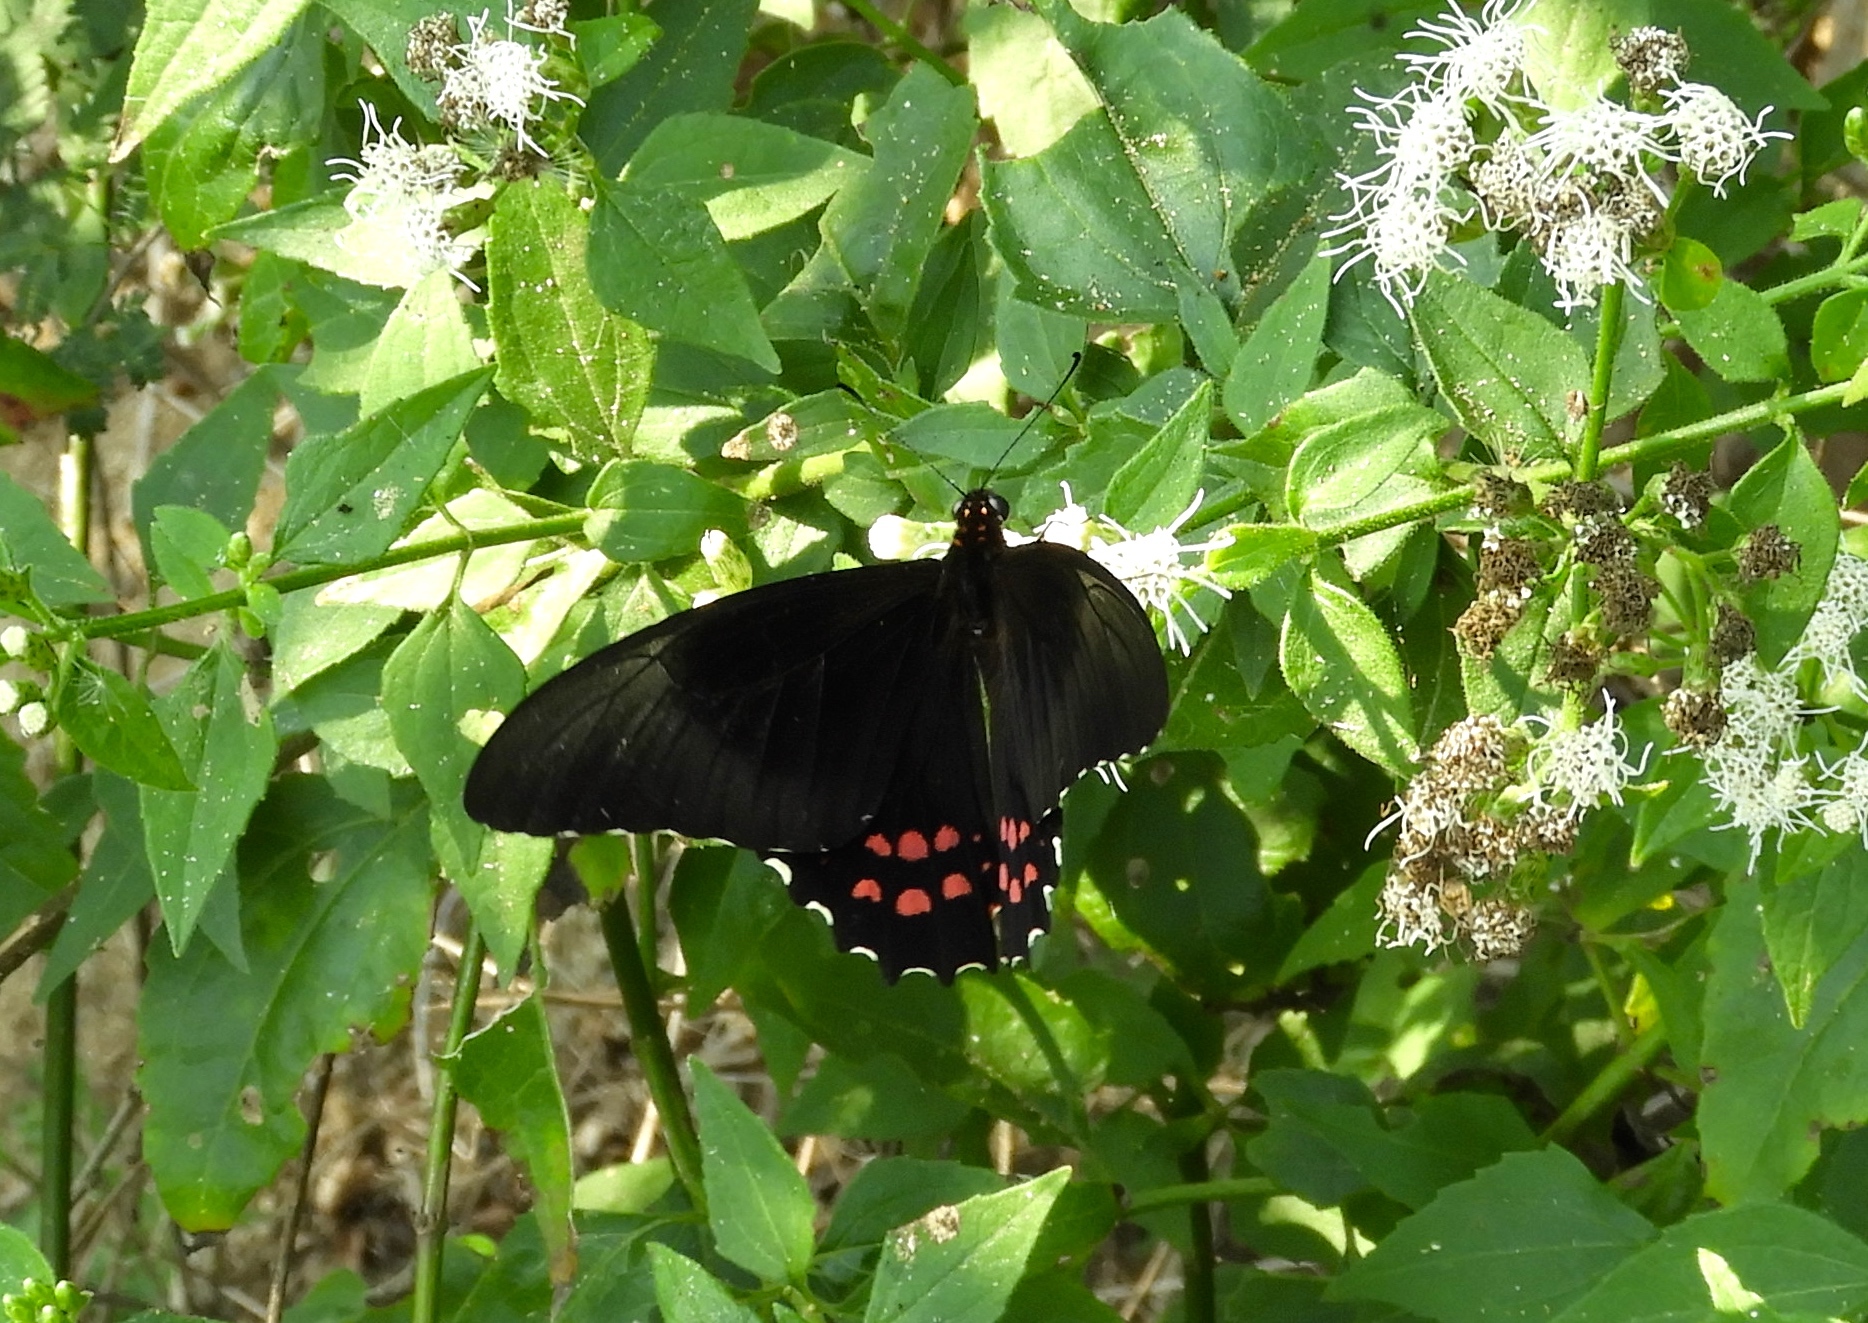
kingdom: Animalia
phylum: Arthropoda
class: Insecta
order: Lepidoptera
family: Papilionidae
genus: Heraclides
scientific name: Heraclides rogeri
